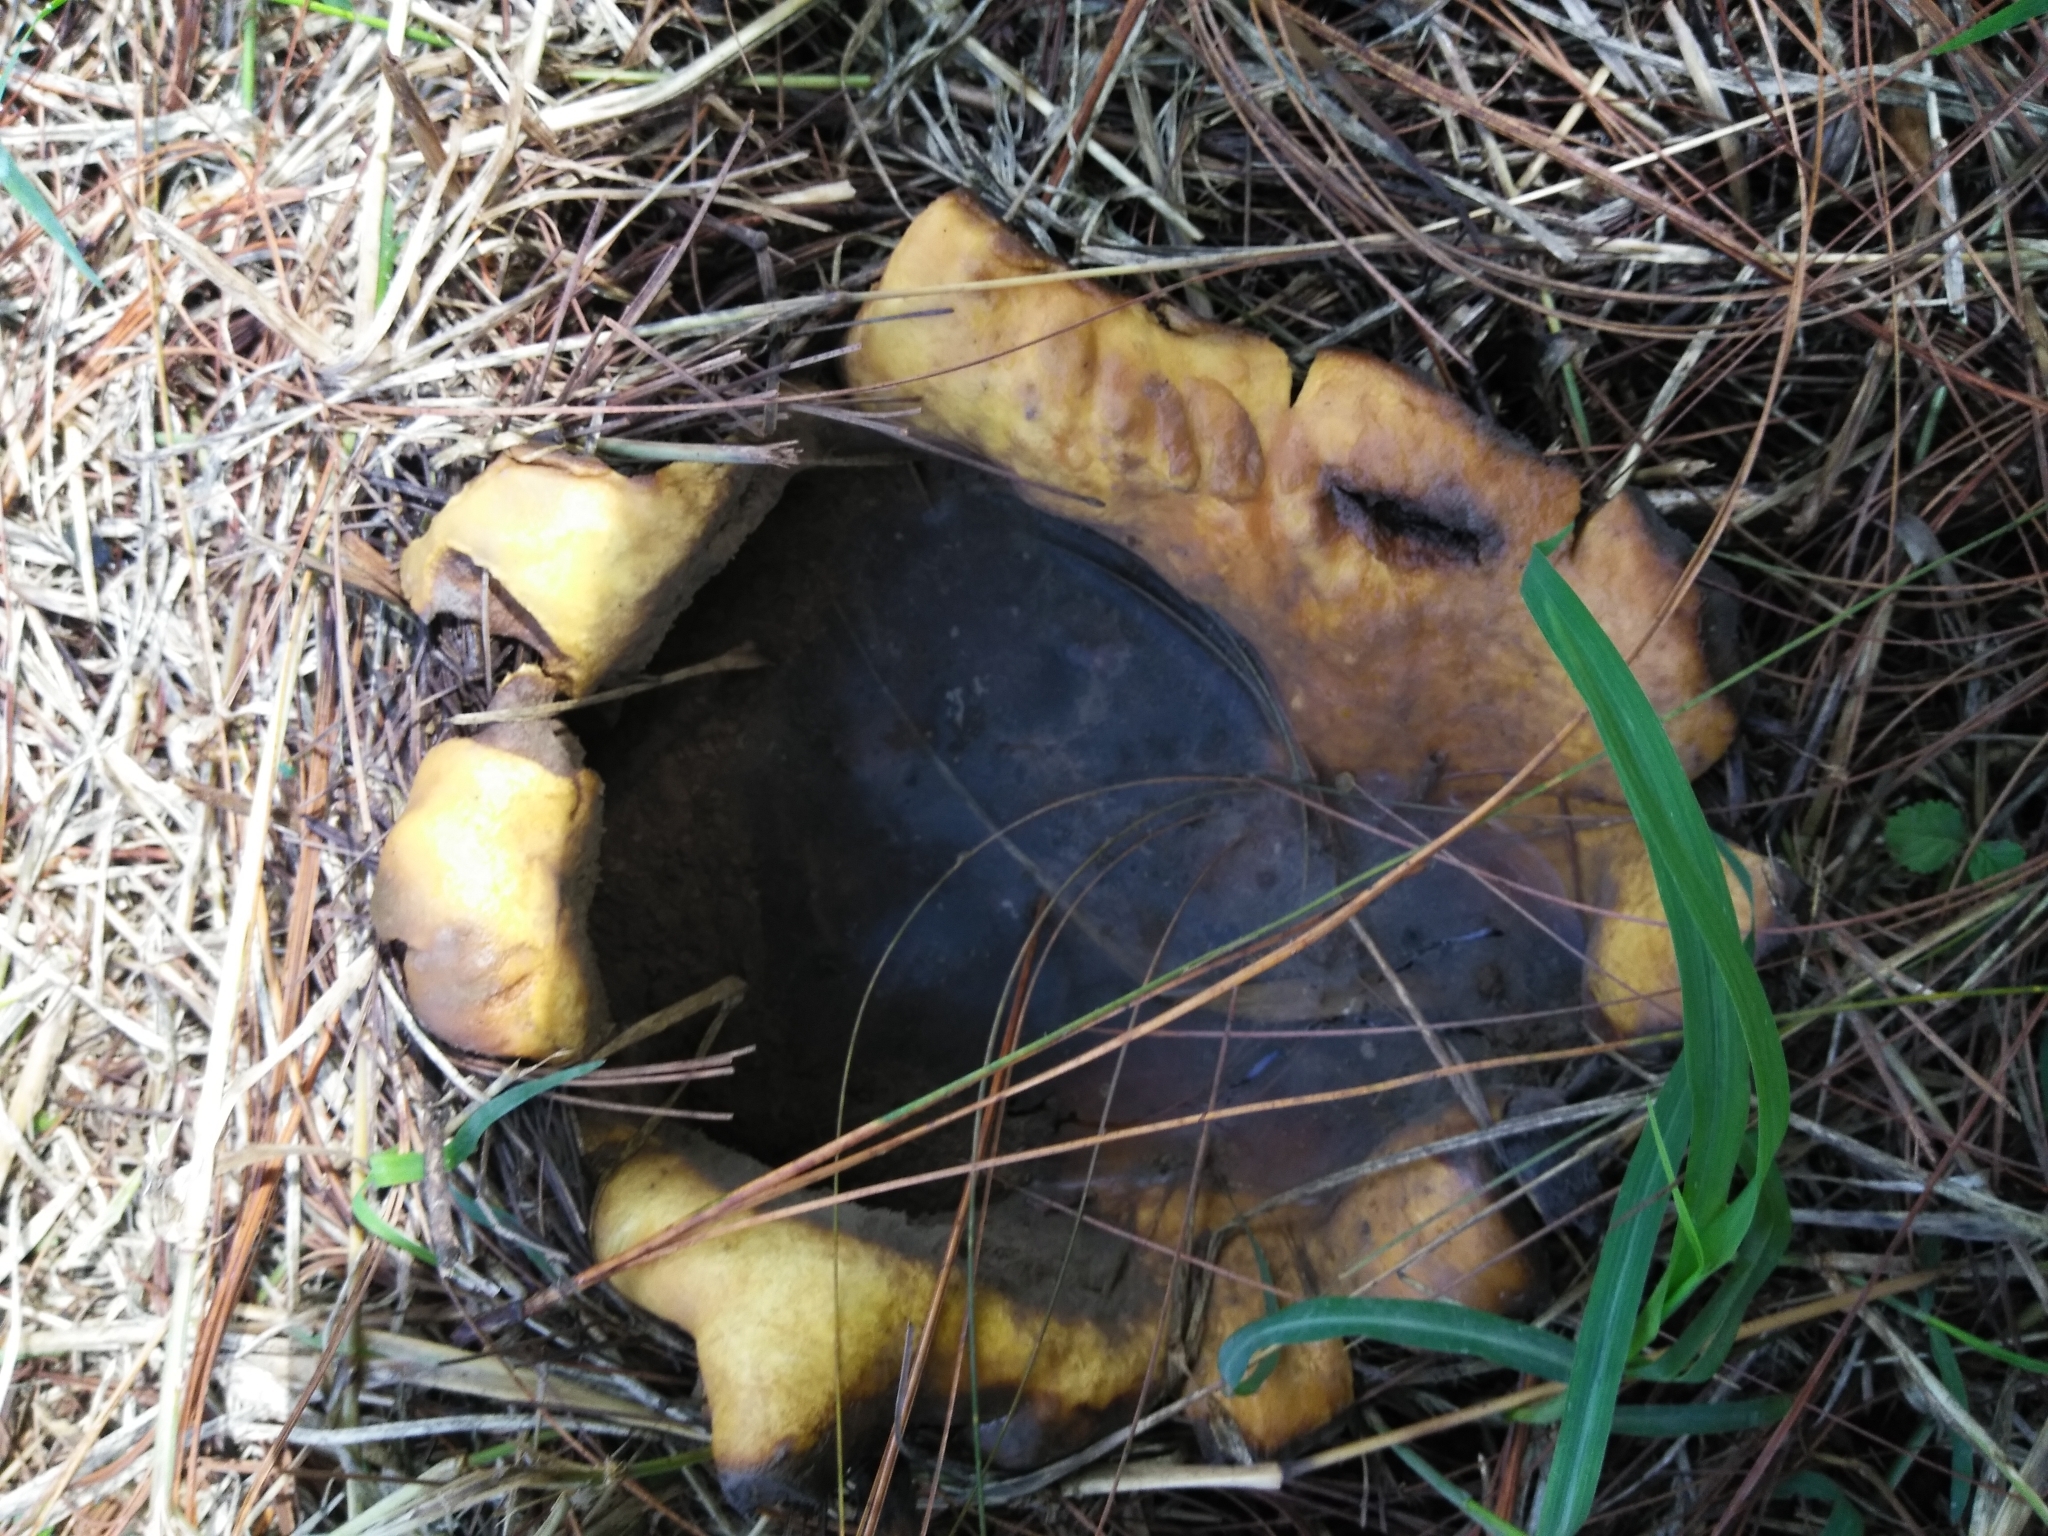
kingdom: Fungi
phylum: Basidiomycota
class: Agaricomycetes
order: Boletales
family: Sclerodermataceae
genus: Scleroderma
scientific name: Scleroderma polyrhizum
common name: Many-rooted earthball
